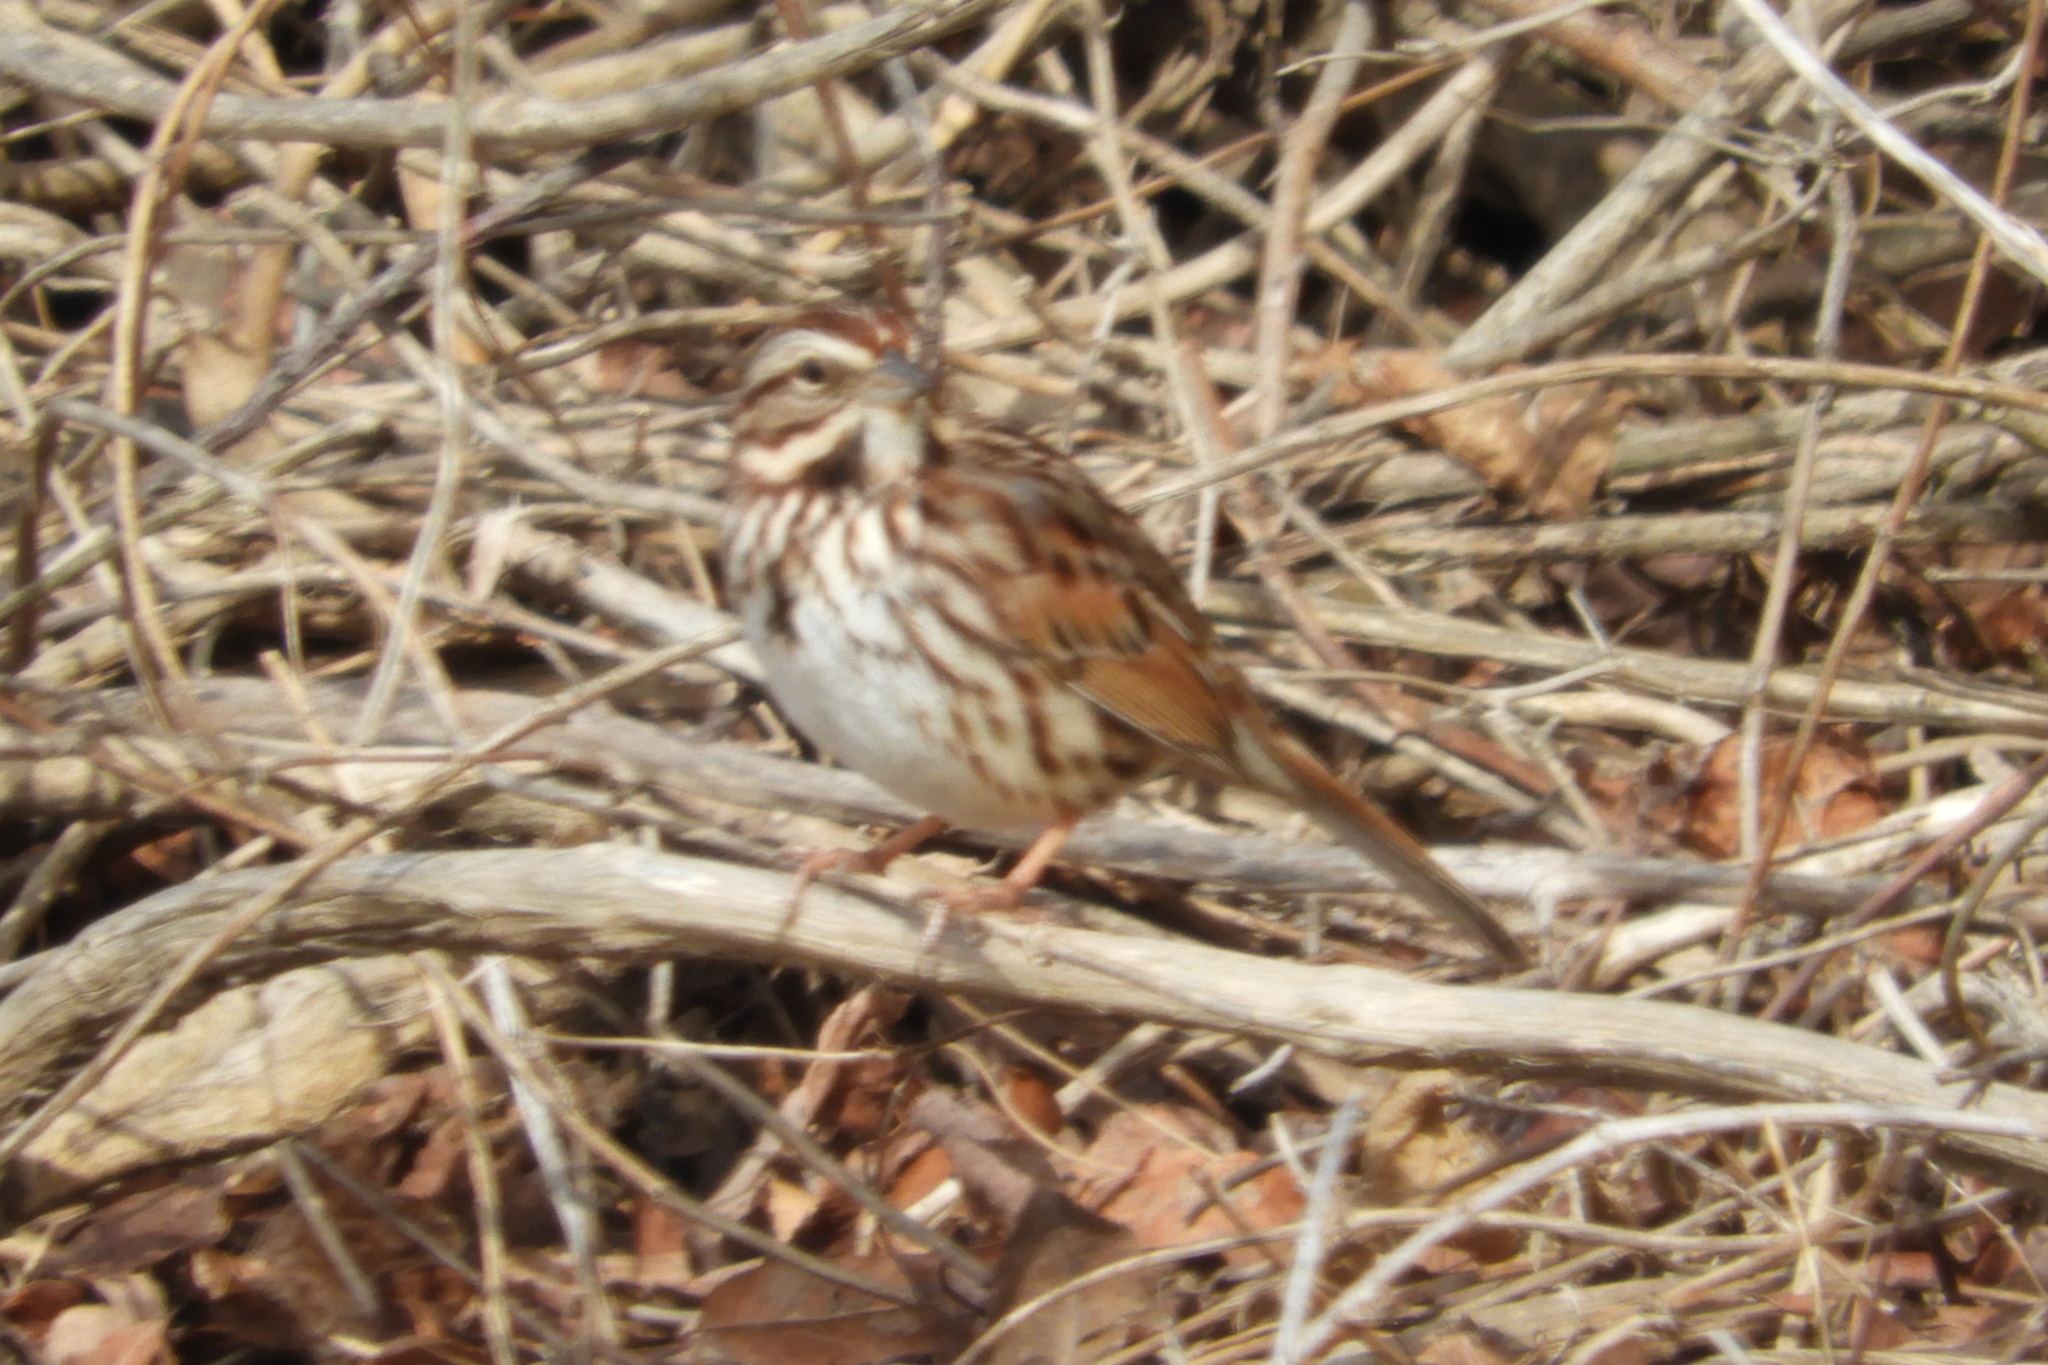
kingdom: Animalia
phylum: Chordata
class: Aves
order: Passeriformes
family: Passerellidae
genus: Melospiza
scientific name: Melospiza melodia
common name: Song sparrow
